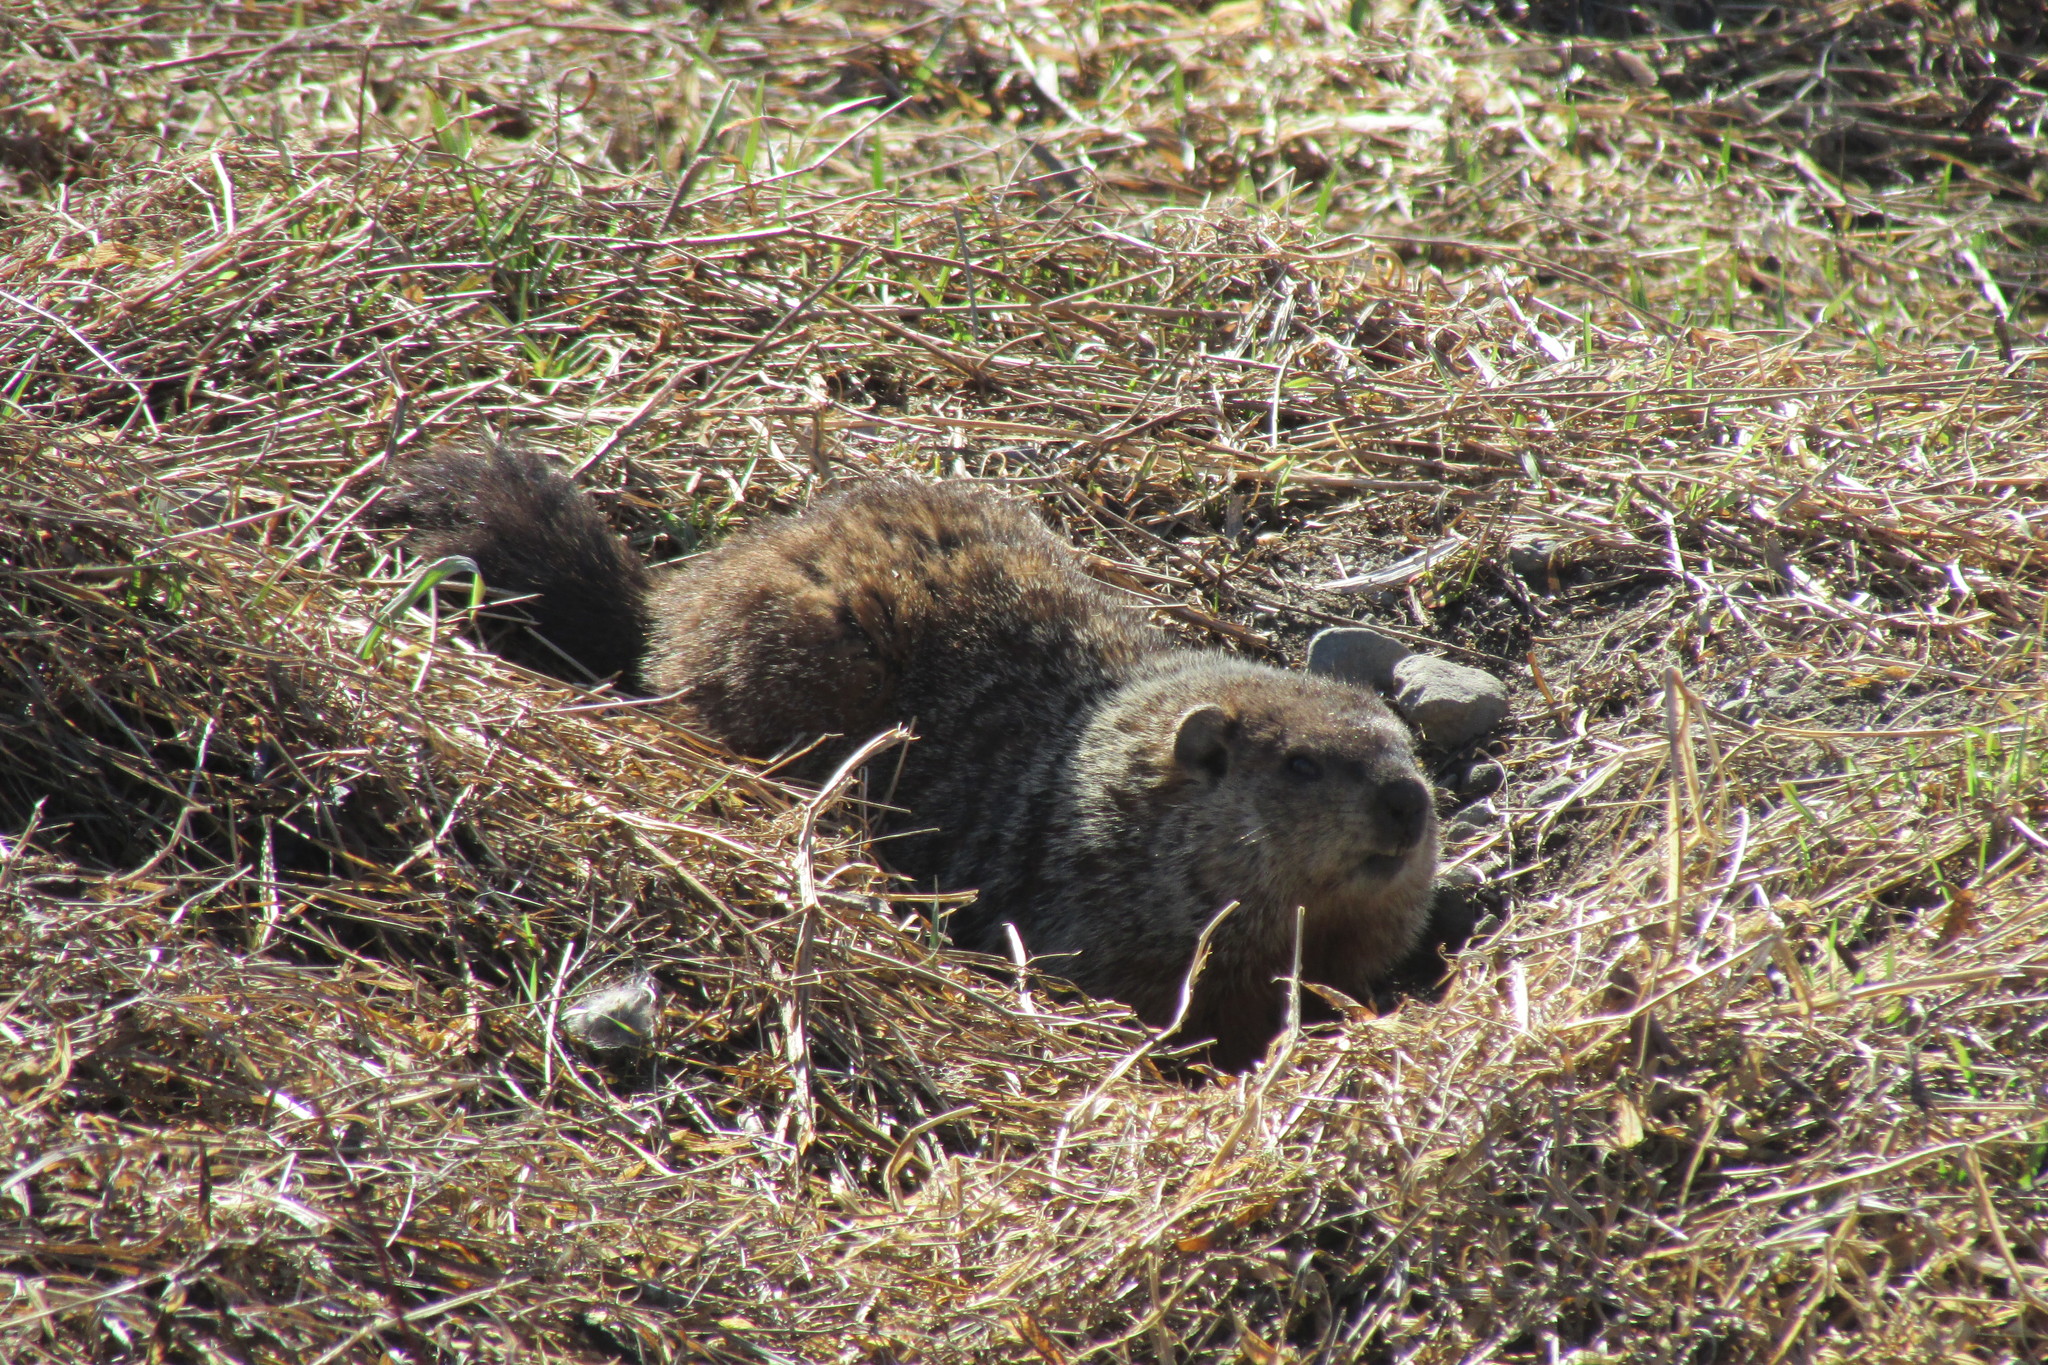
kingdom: Animalia
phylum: Chordata
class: Mammalia
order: Rodentia
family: Sciuridae
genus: Marmota
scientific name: Marmota monax
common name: Groundhog
